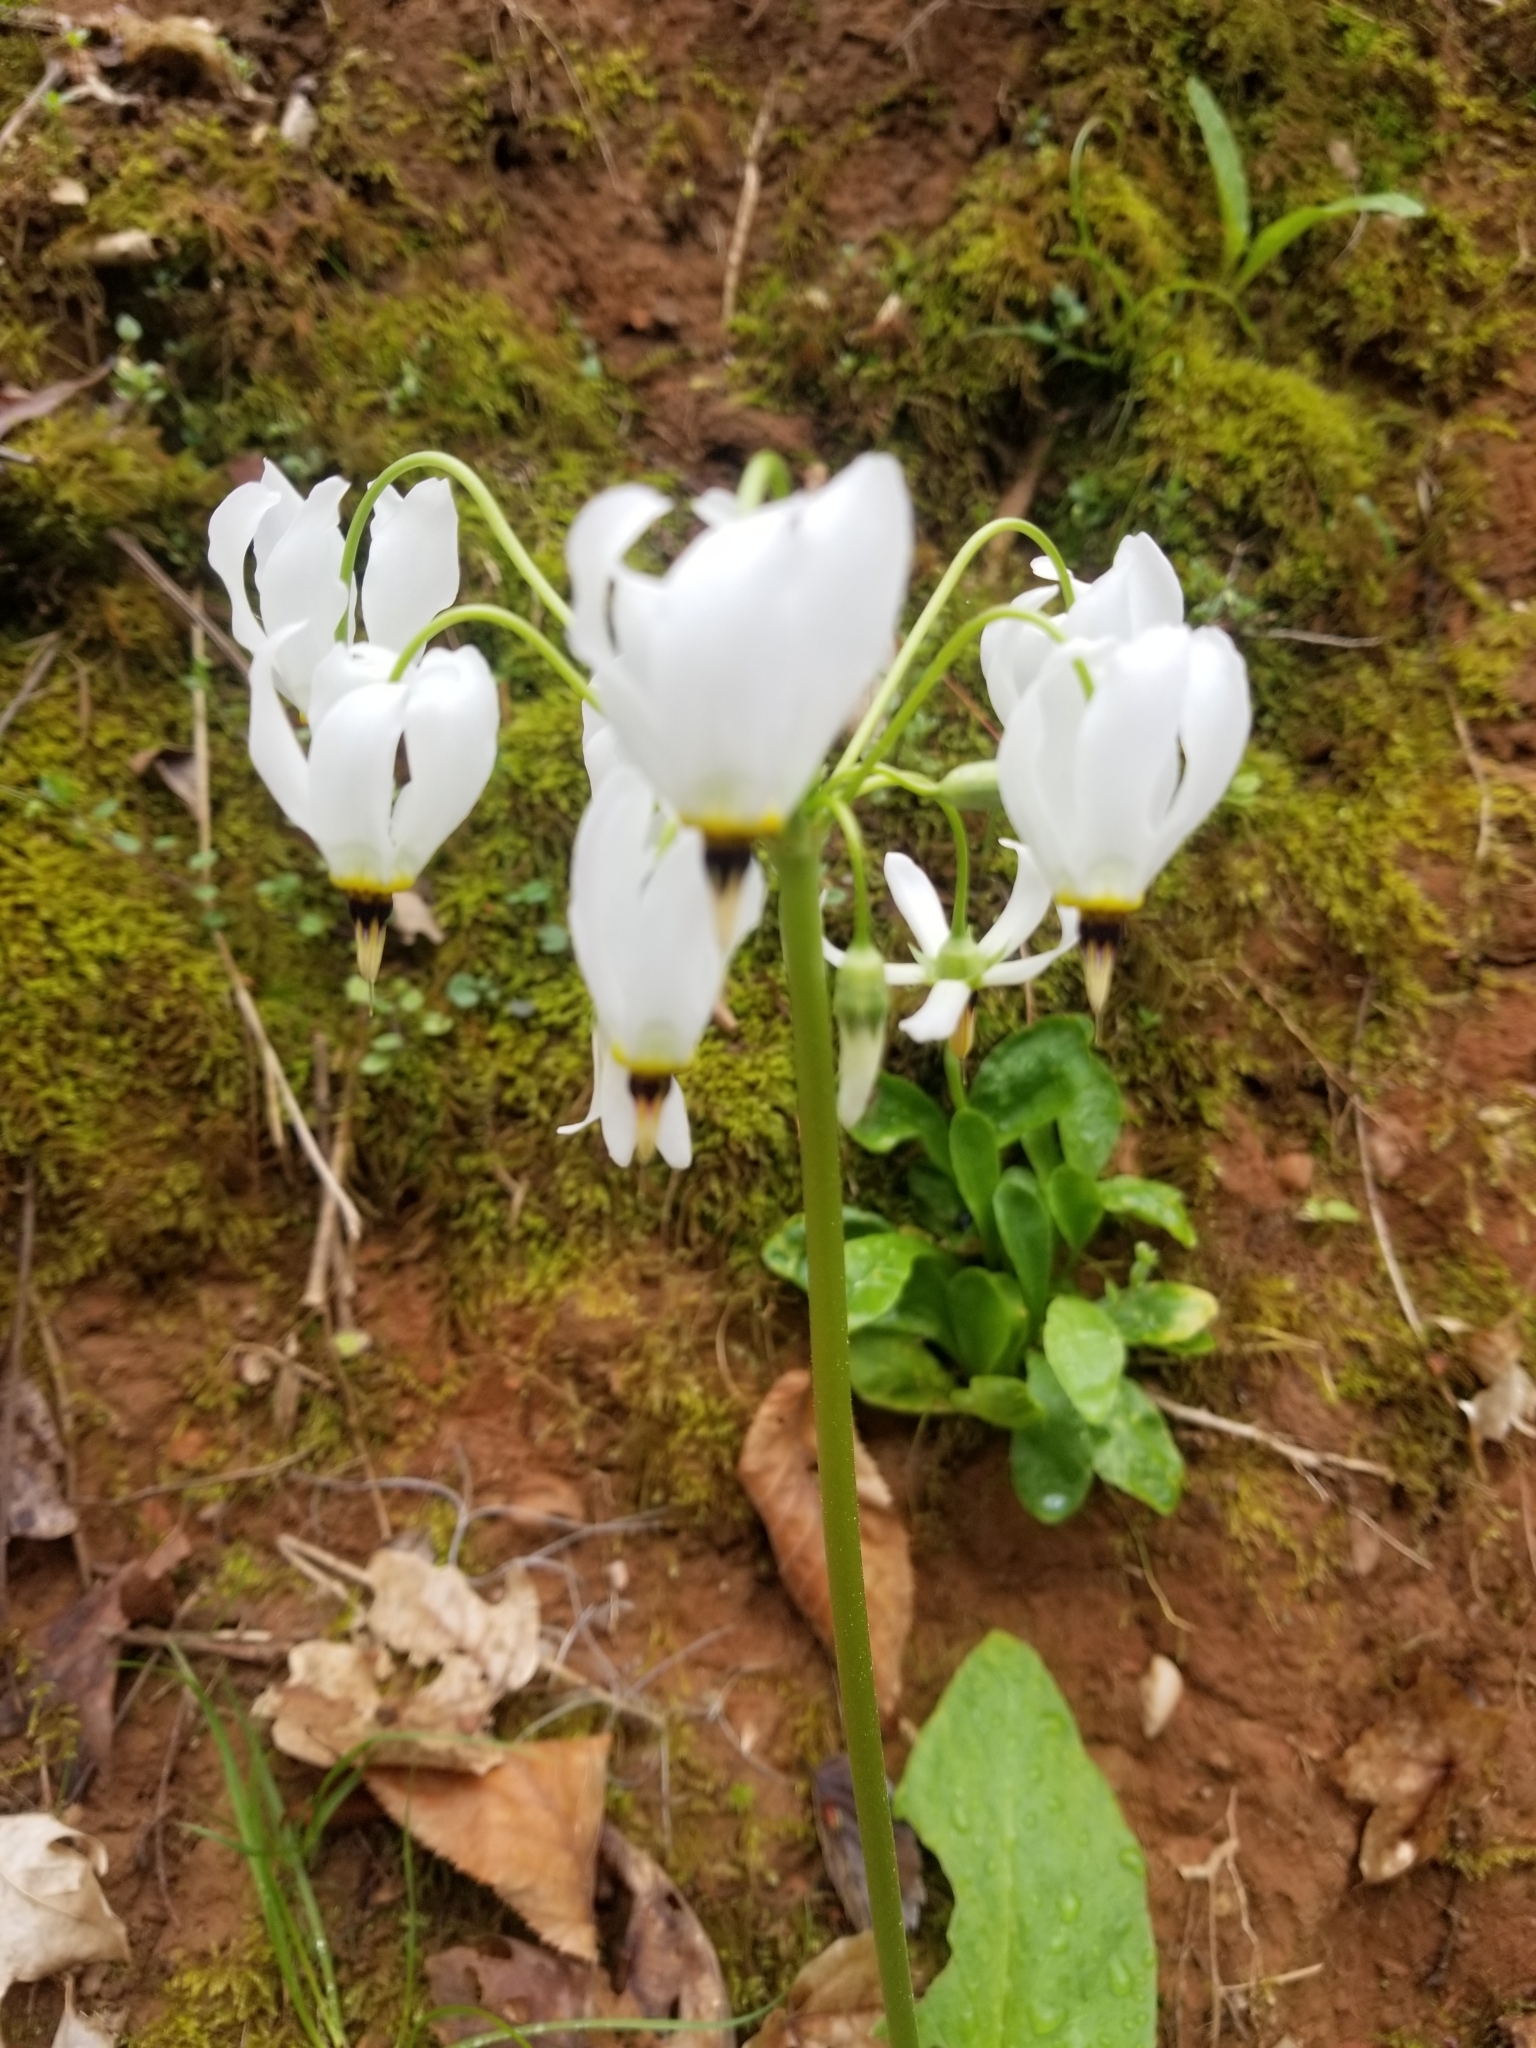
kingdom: Plantae
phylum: Tracheophyta
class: Magnoliopsida
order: Ericales
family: Primulaceae
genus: Dodecatheon
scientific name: Dodecatheon meadia
